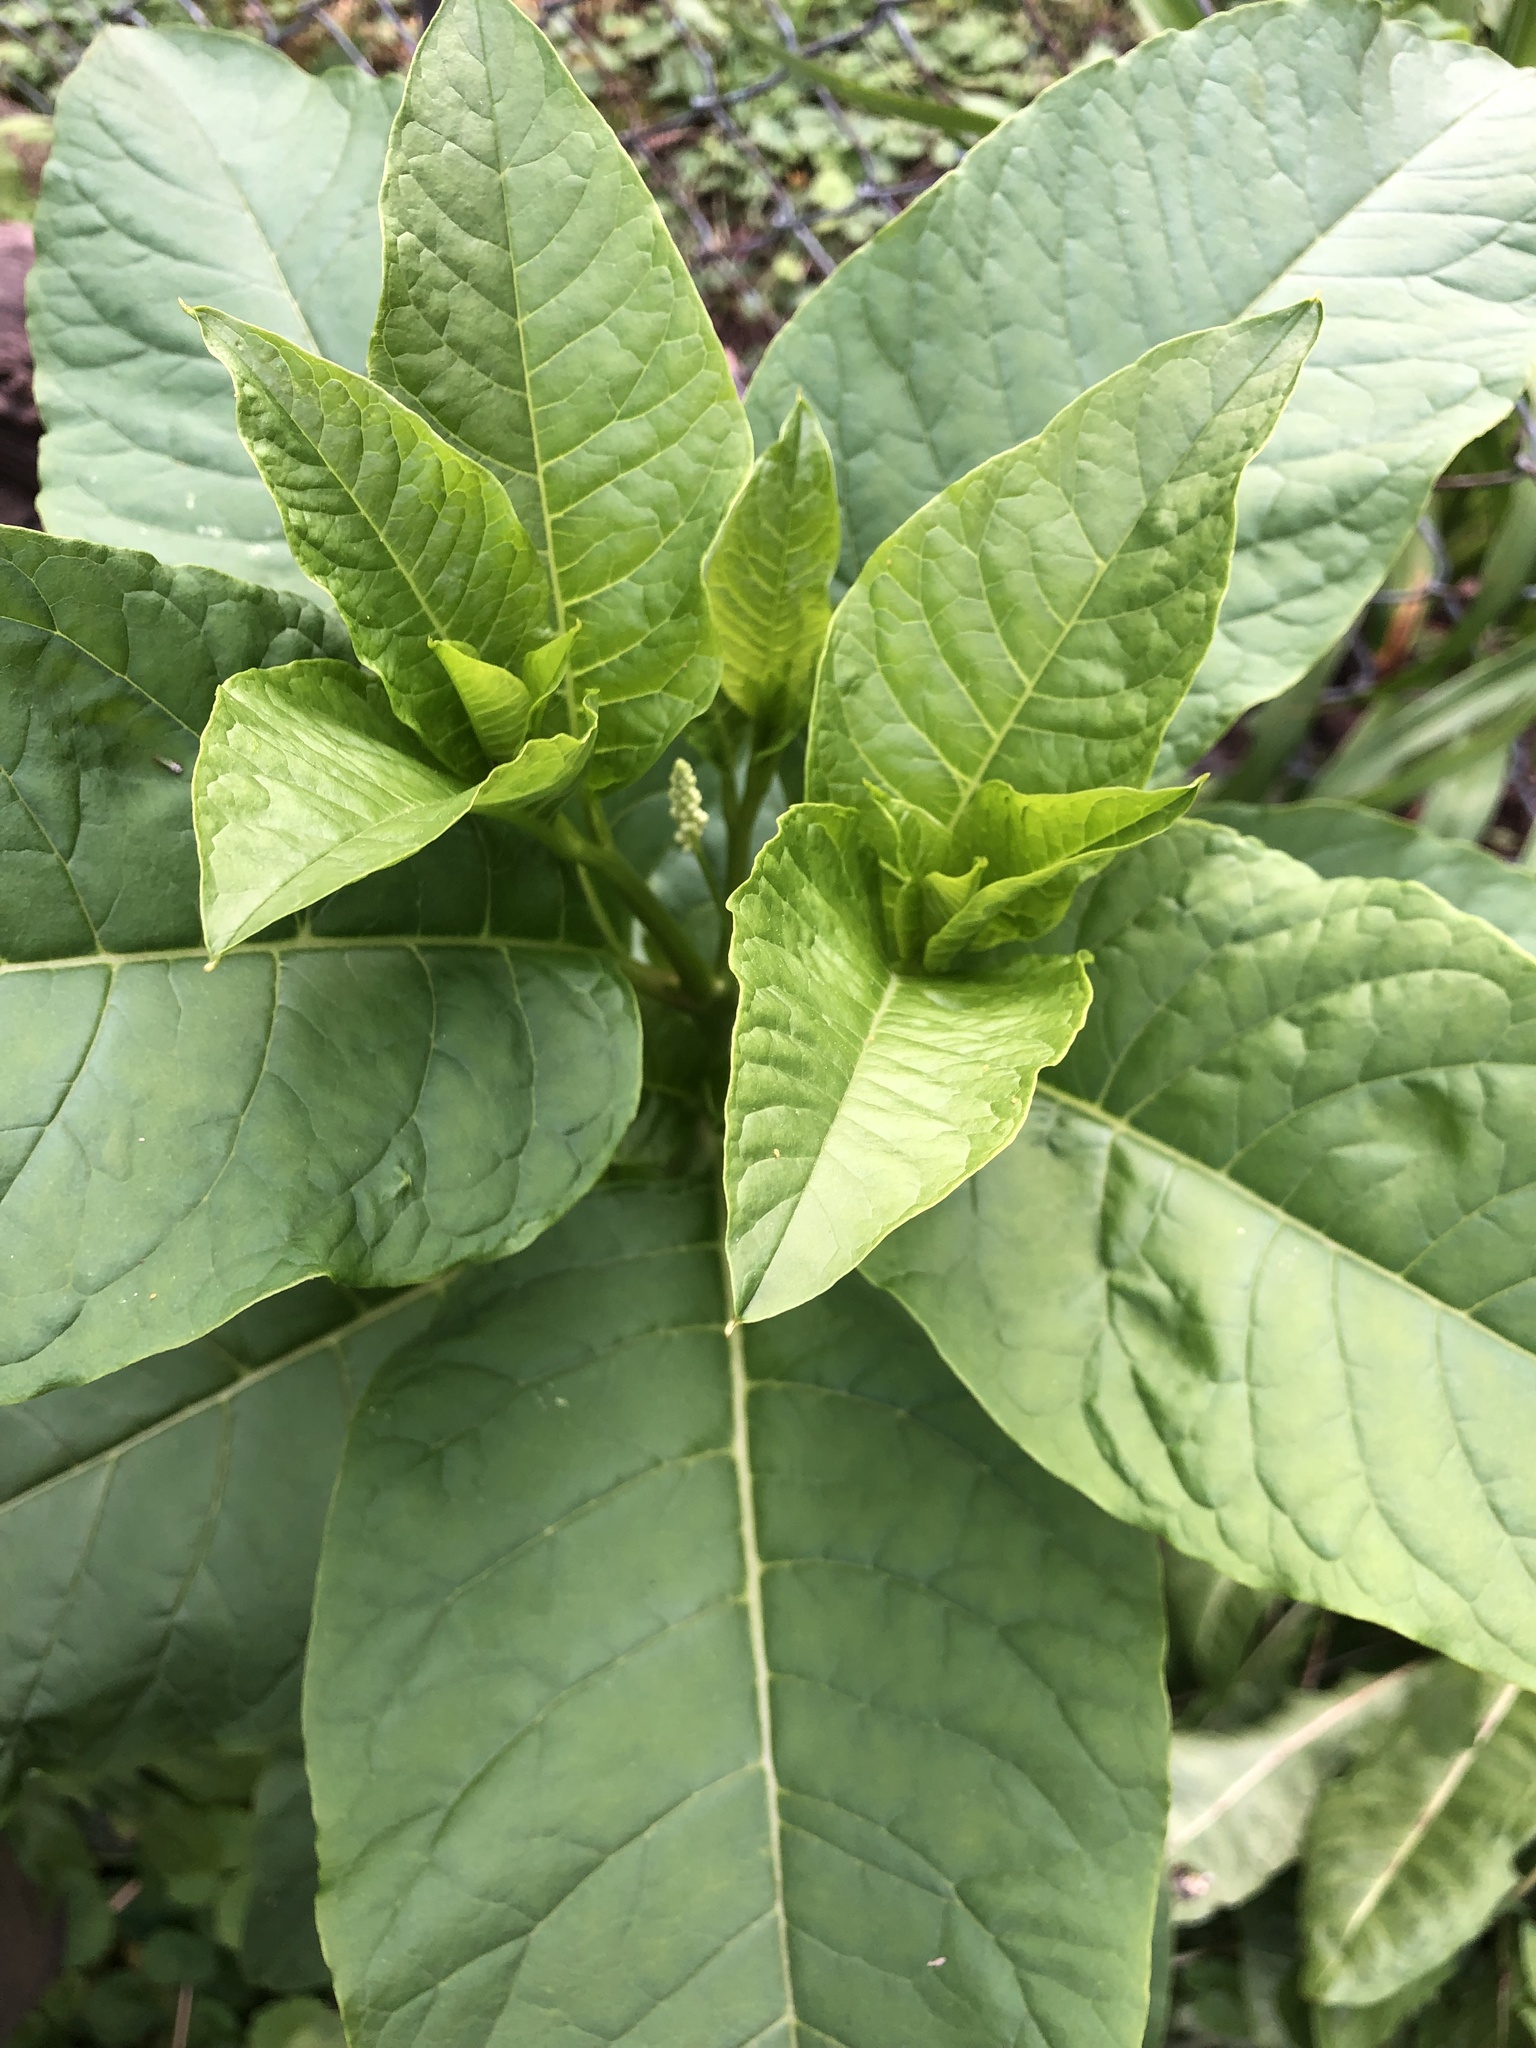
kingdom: Plantae
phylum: Tracheophyta
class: Magnoliopsida
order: Caryophyllales
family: Phytolaccaceae
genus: Phytolacca
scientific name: Phytolacca americana
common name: American pokeweed
